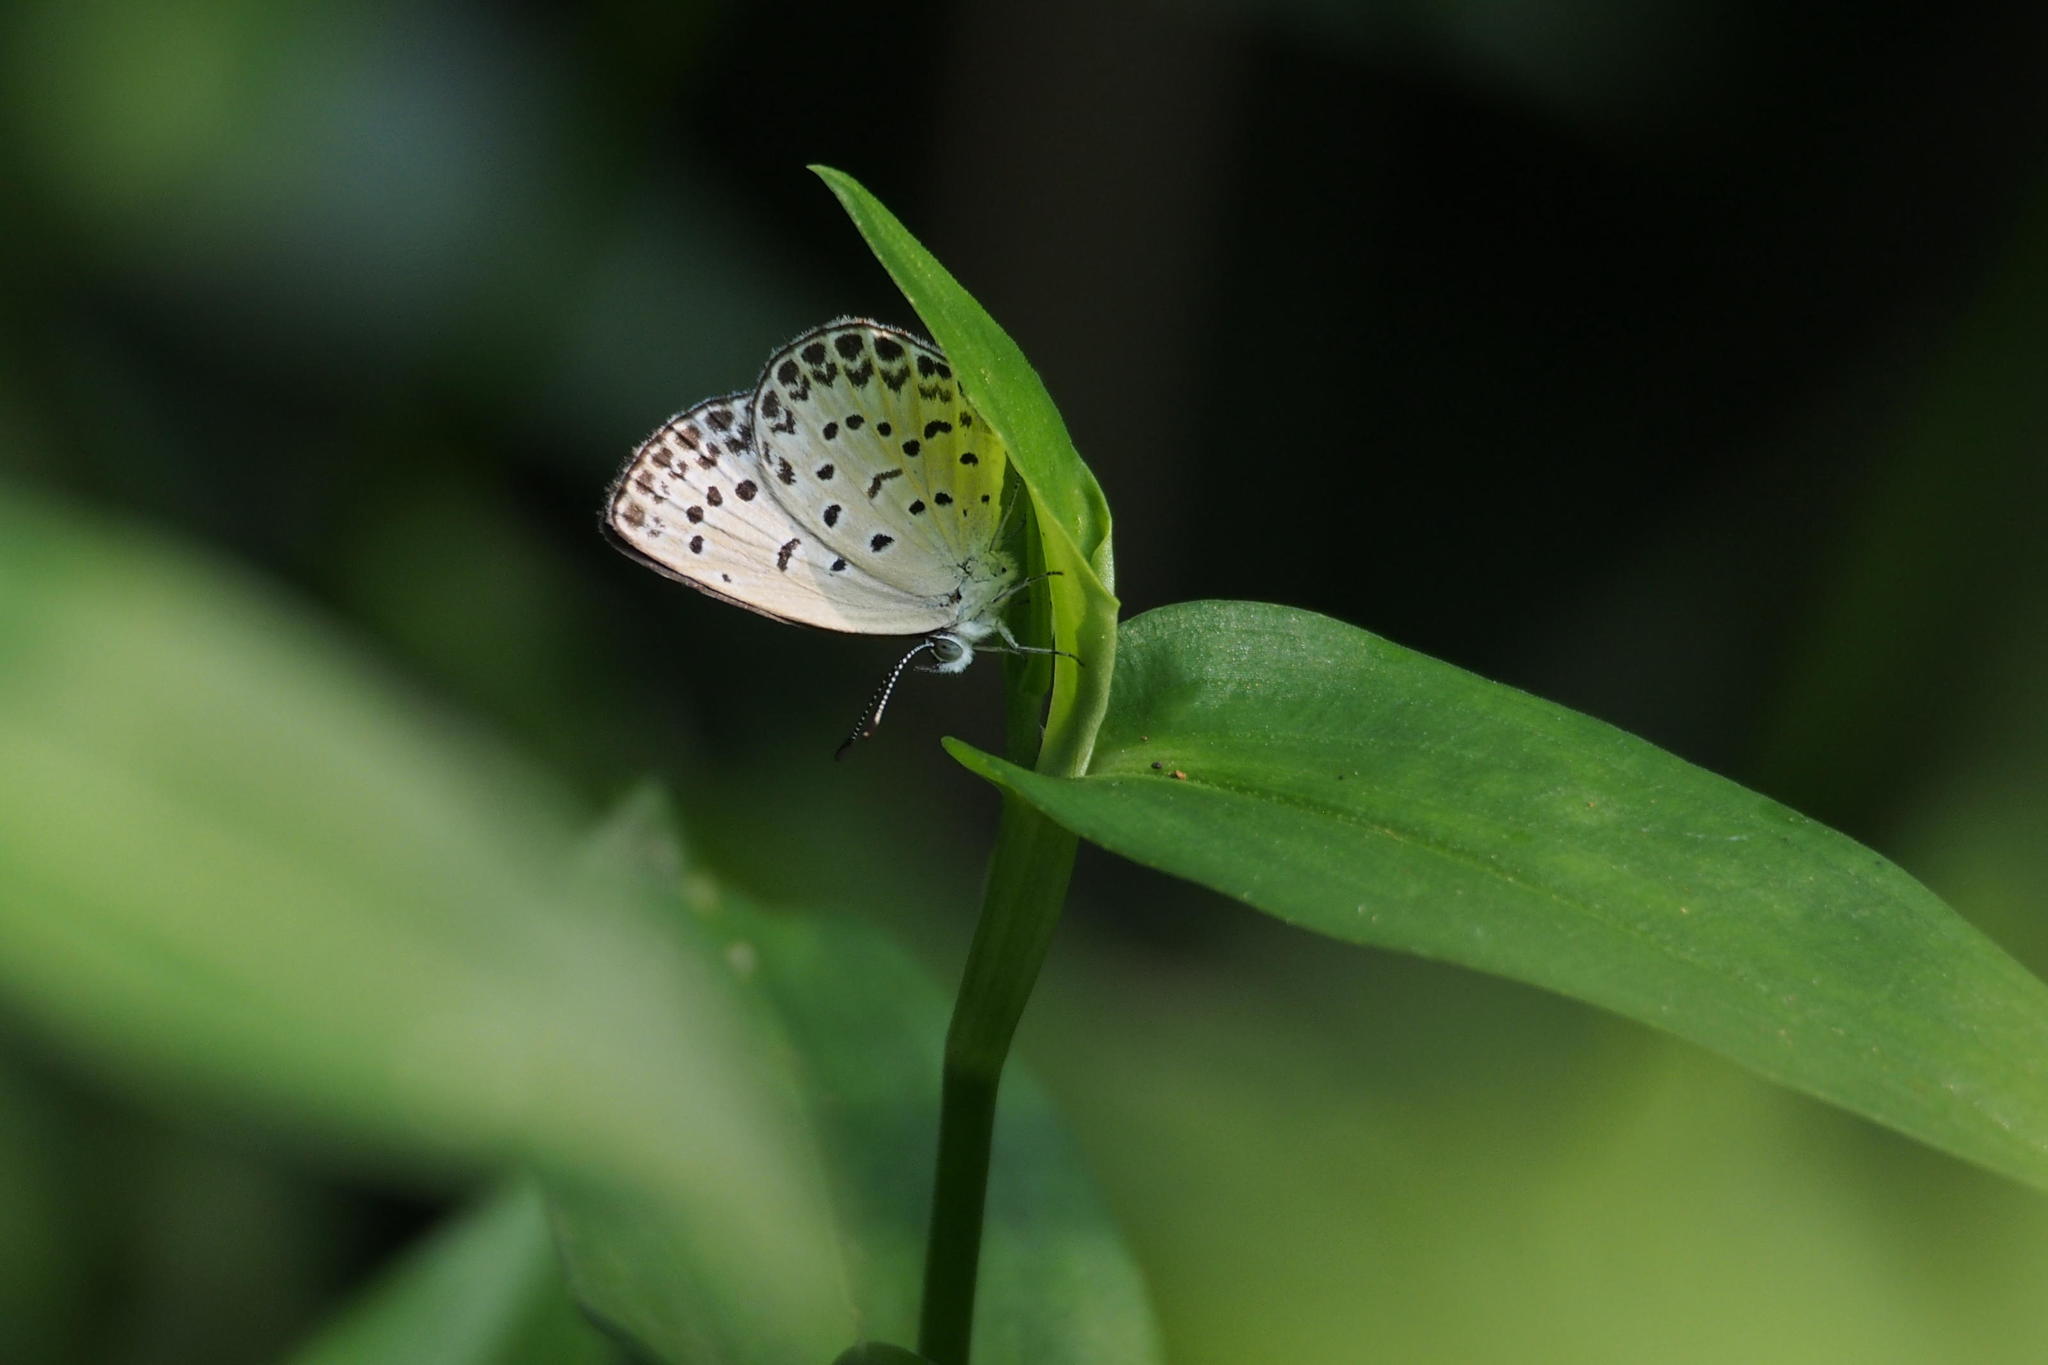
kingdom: Animalia
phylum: Arthropoda
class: Insecta
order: Lepidoptera
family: Lycaenidae
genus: Pseudozizeeria
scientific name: Pseudozizeeria maha
